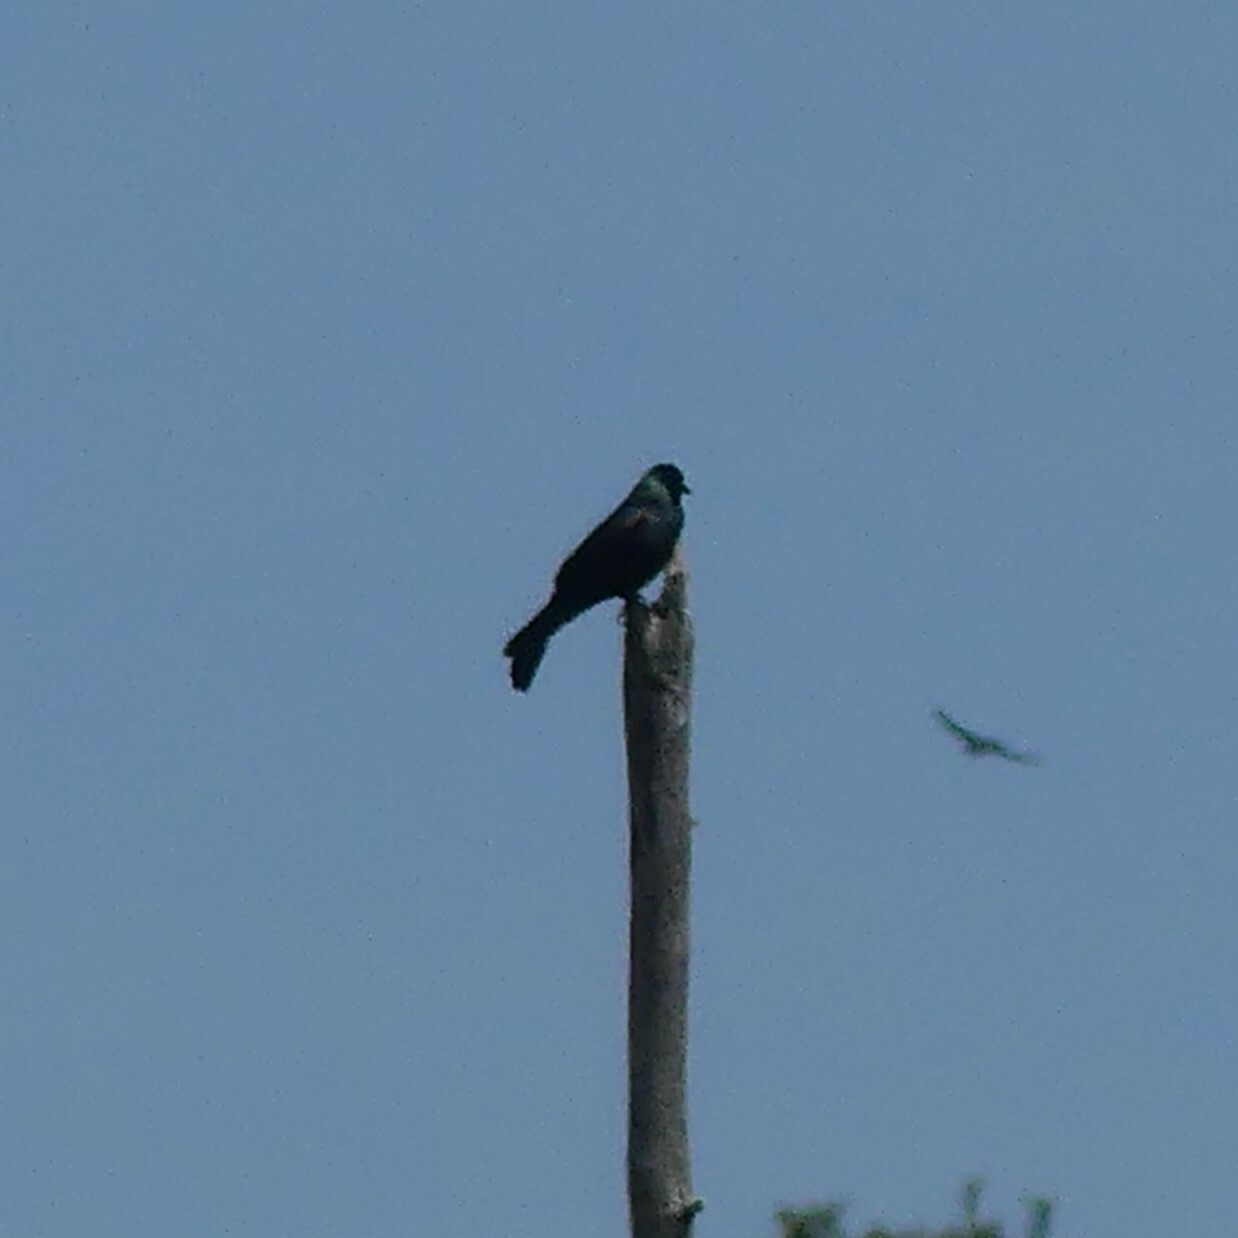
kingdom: Animalia
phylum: Chordata
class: Aves
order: Passeriformes
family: Icteridae
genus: Quiscalus
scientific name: Quiscalus quiscula
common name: Common grackle
